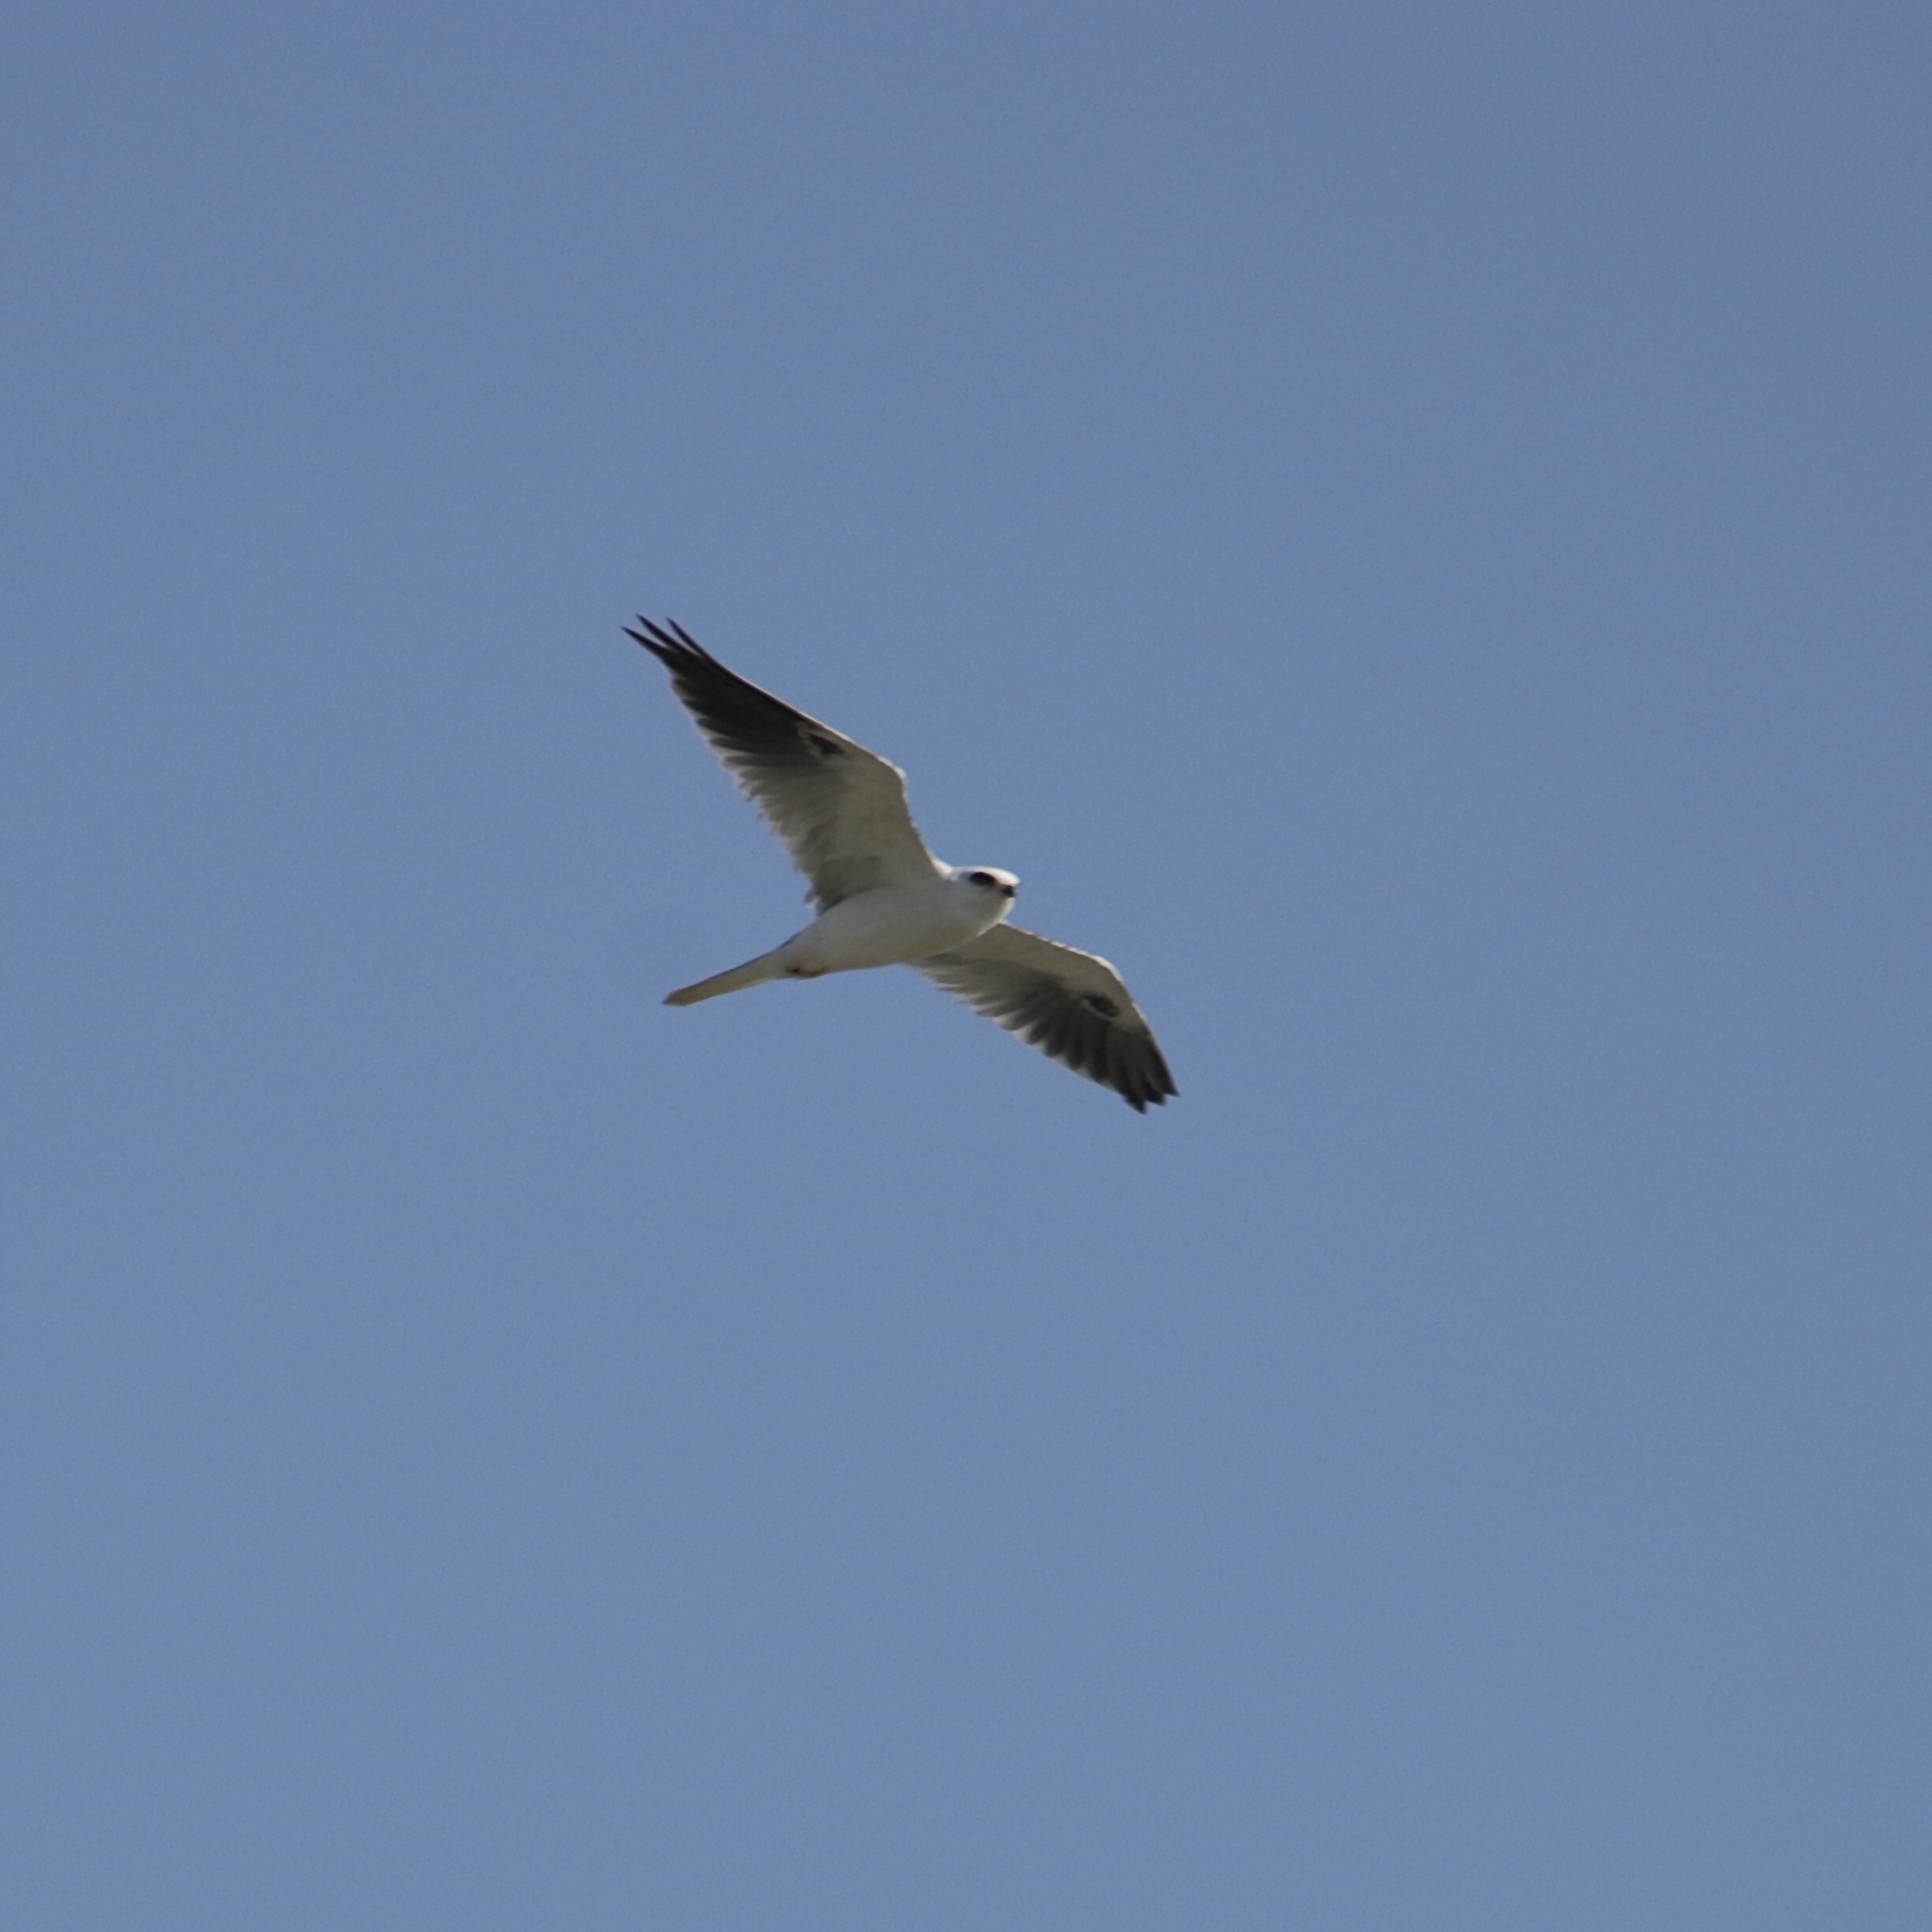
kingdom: Animalia
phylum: Chordata
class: Aves
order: Accipitriformes
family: Accipitridae
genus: Elanus
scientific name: Elanus leucurus
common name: White-tailed kite
